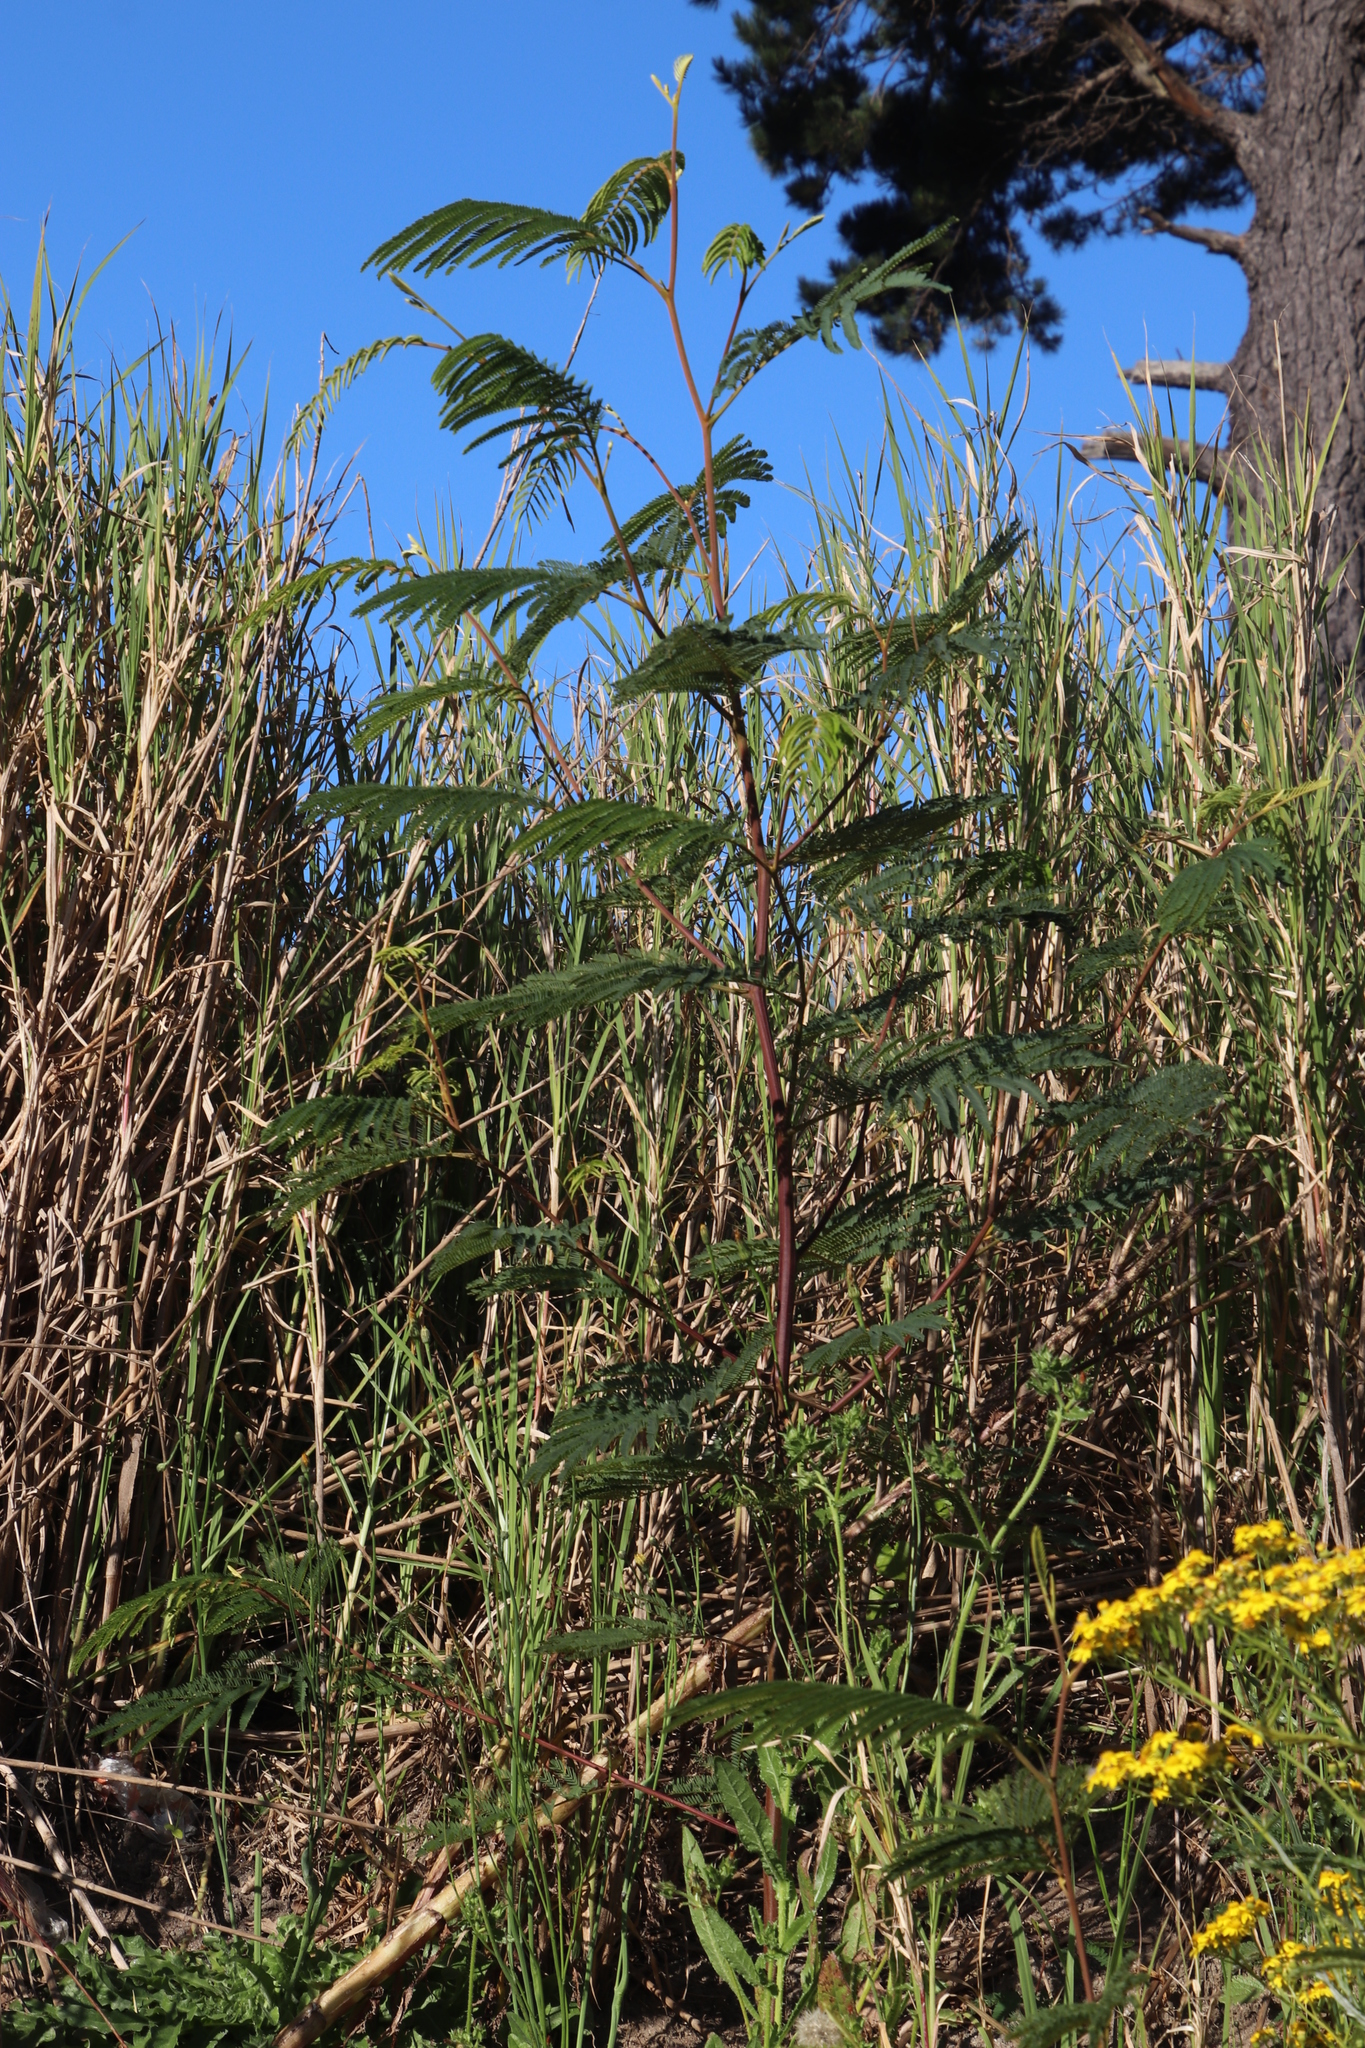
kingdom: Plantae
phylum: Tracheophyta
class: Magnoliopsida
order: Fabales
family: Fabaceae
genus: Paraserianthes
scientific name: Paraserianthes lophantha
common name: Plume albizia
